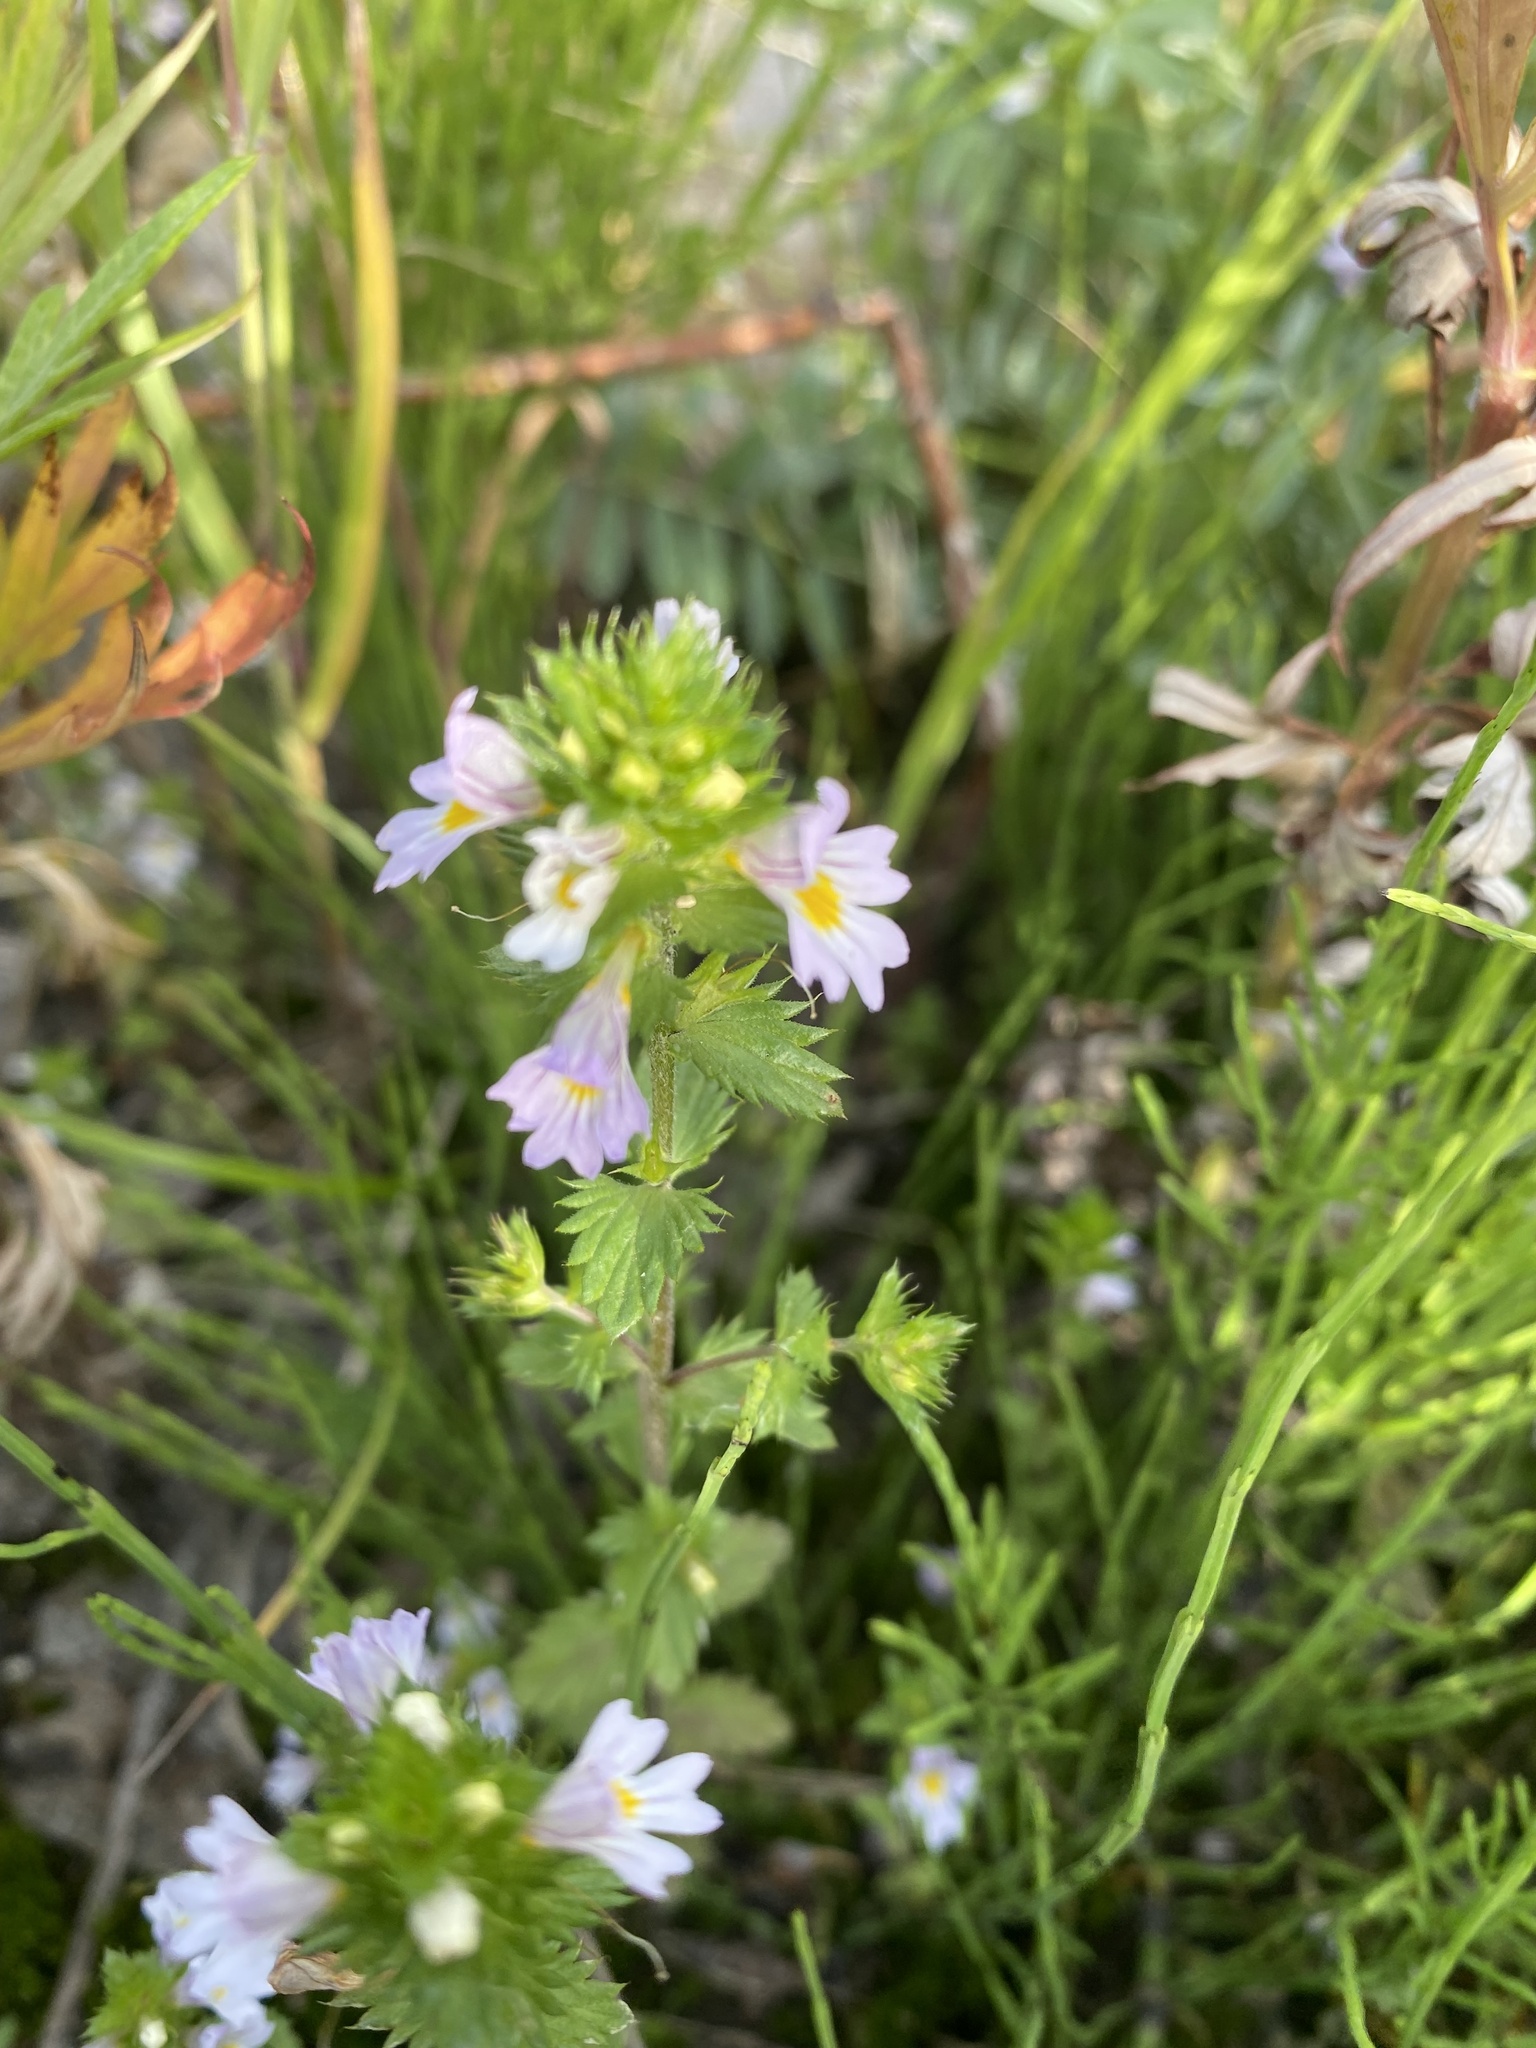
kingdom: Plantae
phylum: Tracheophyta
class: Magnoliopsida
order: Lamiales
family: Orobanchaceae
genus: Euphrasia
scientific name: Euphrasia maximowiczii
